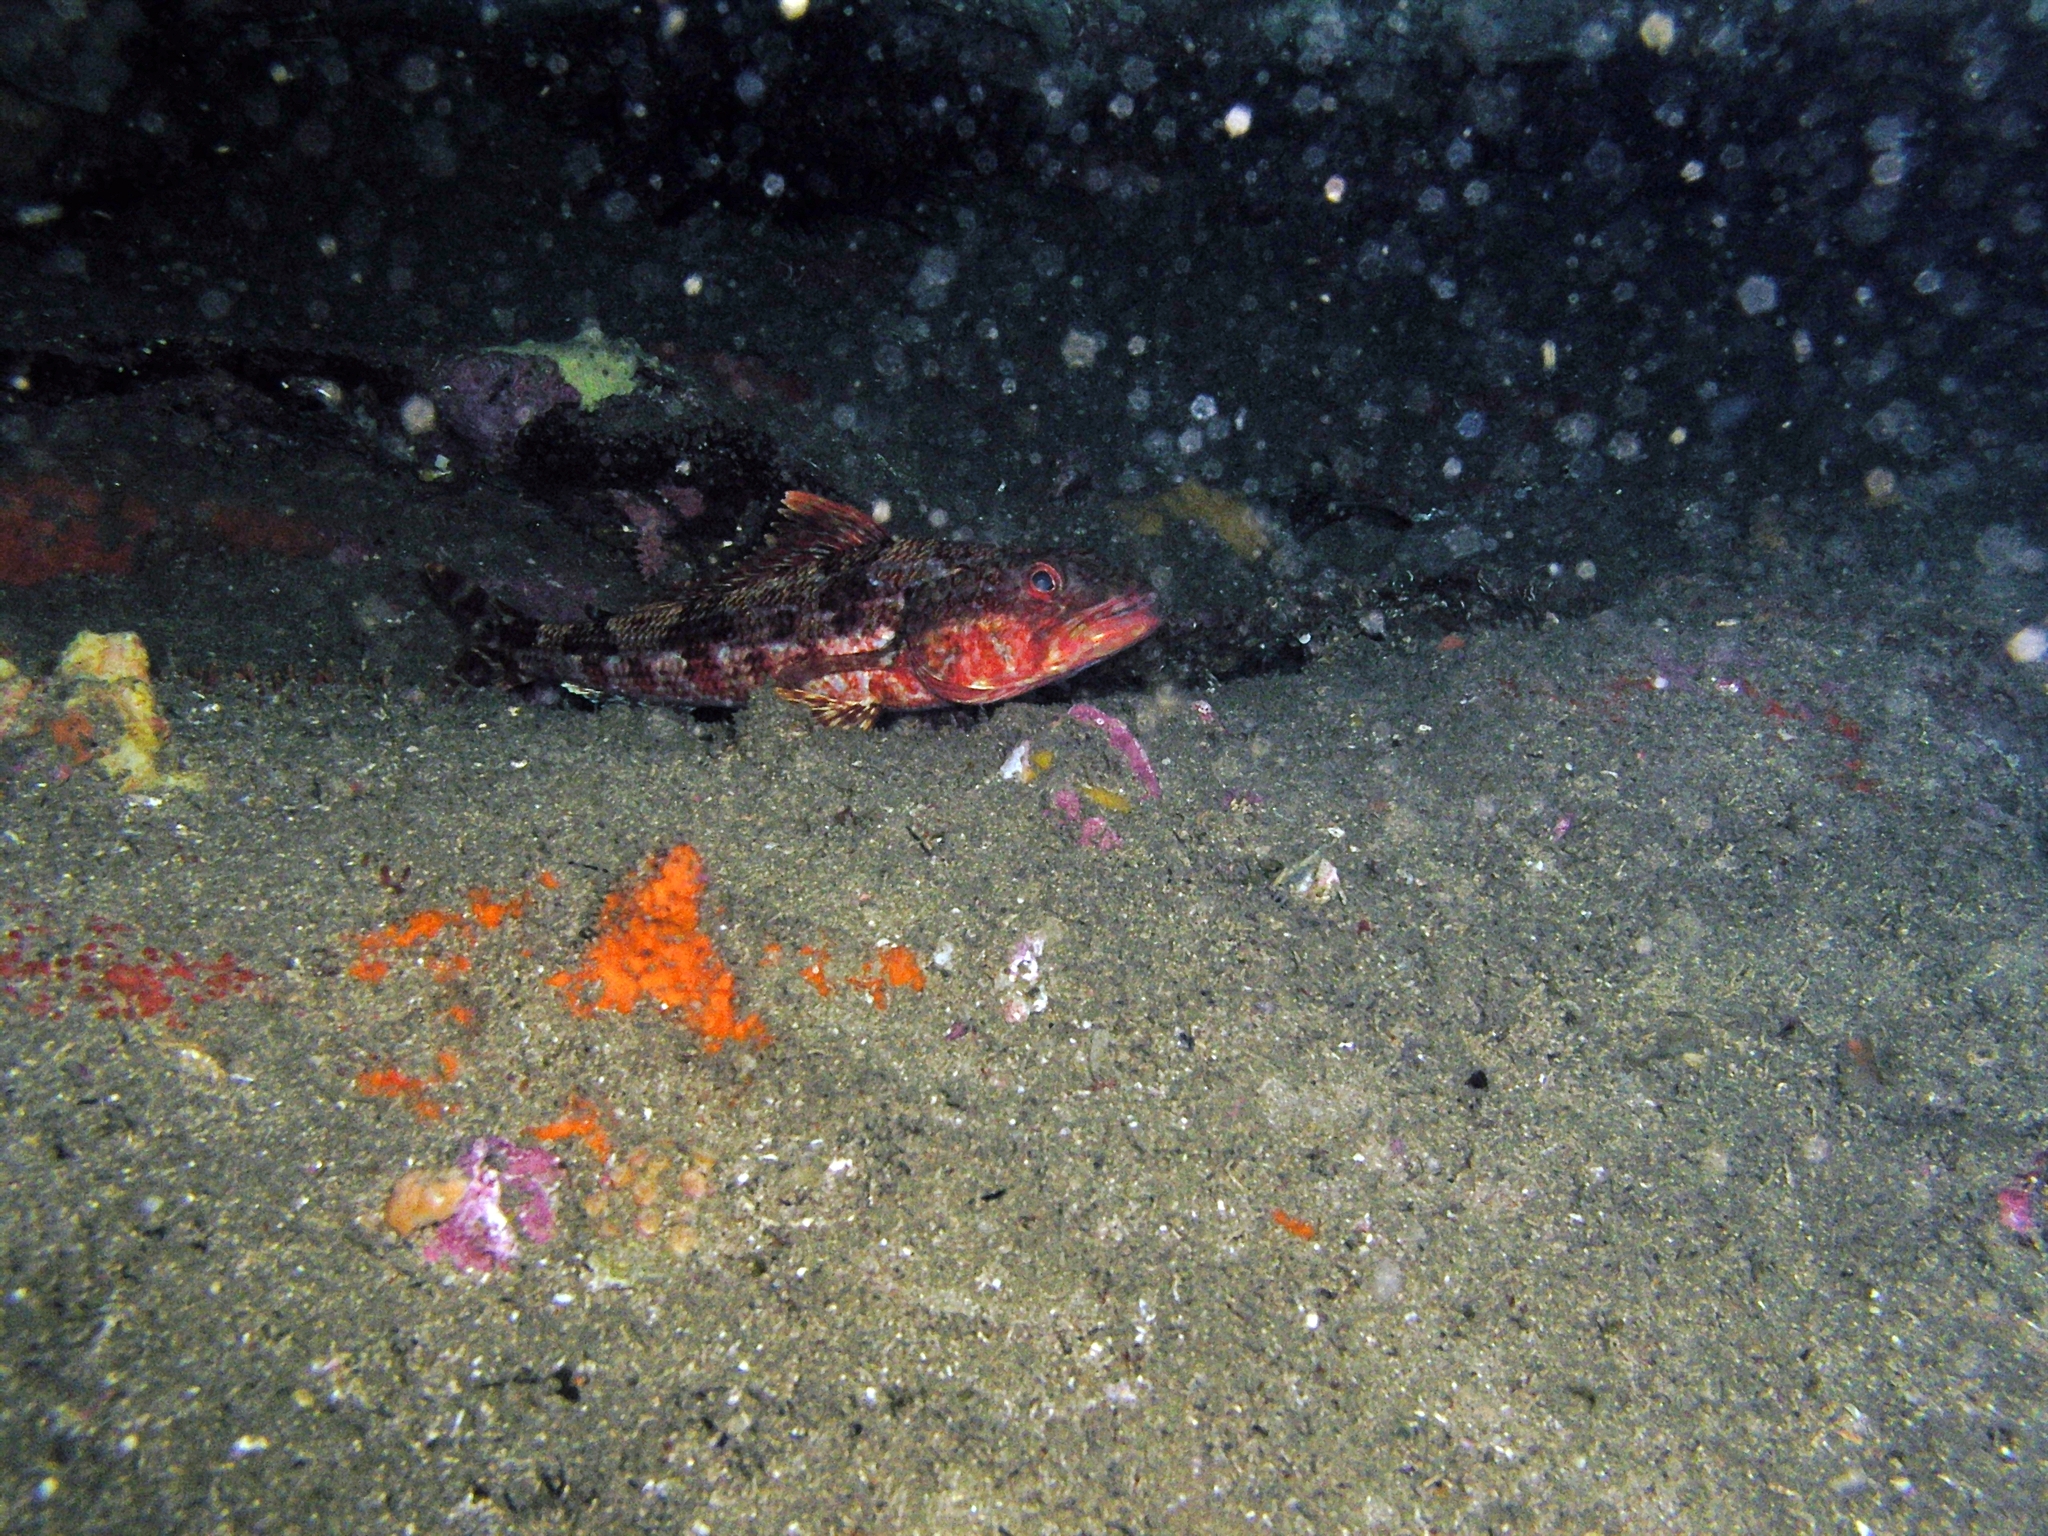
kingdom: Animalia
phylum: Chordata
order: Aulopiformes
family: Aulopidae
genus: Latropiscis
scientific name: Latropiscis purpurissatus
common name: Sergeant baker
